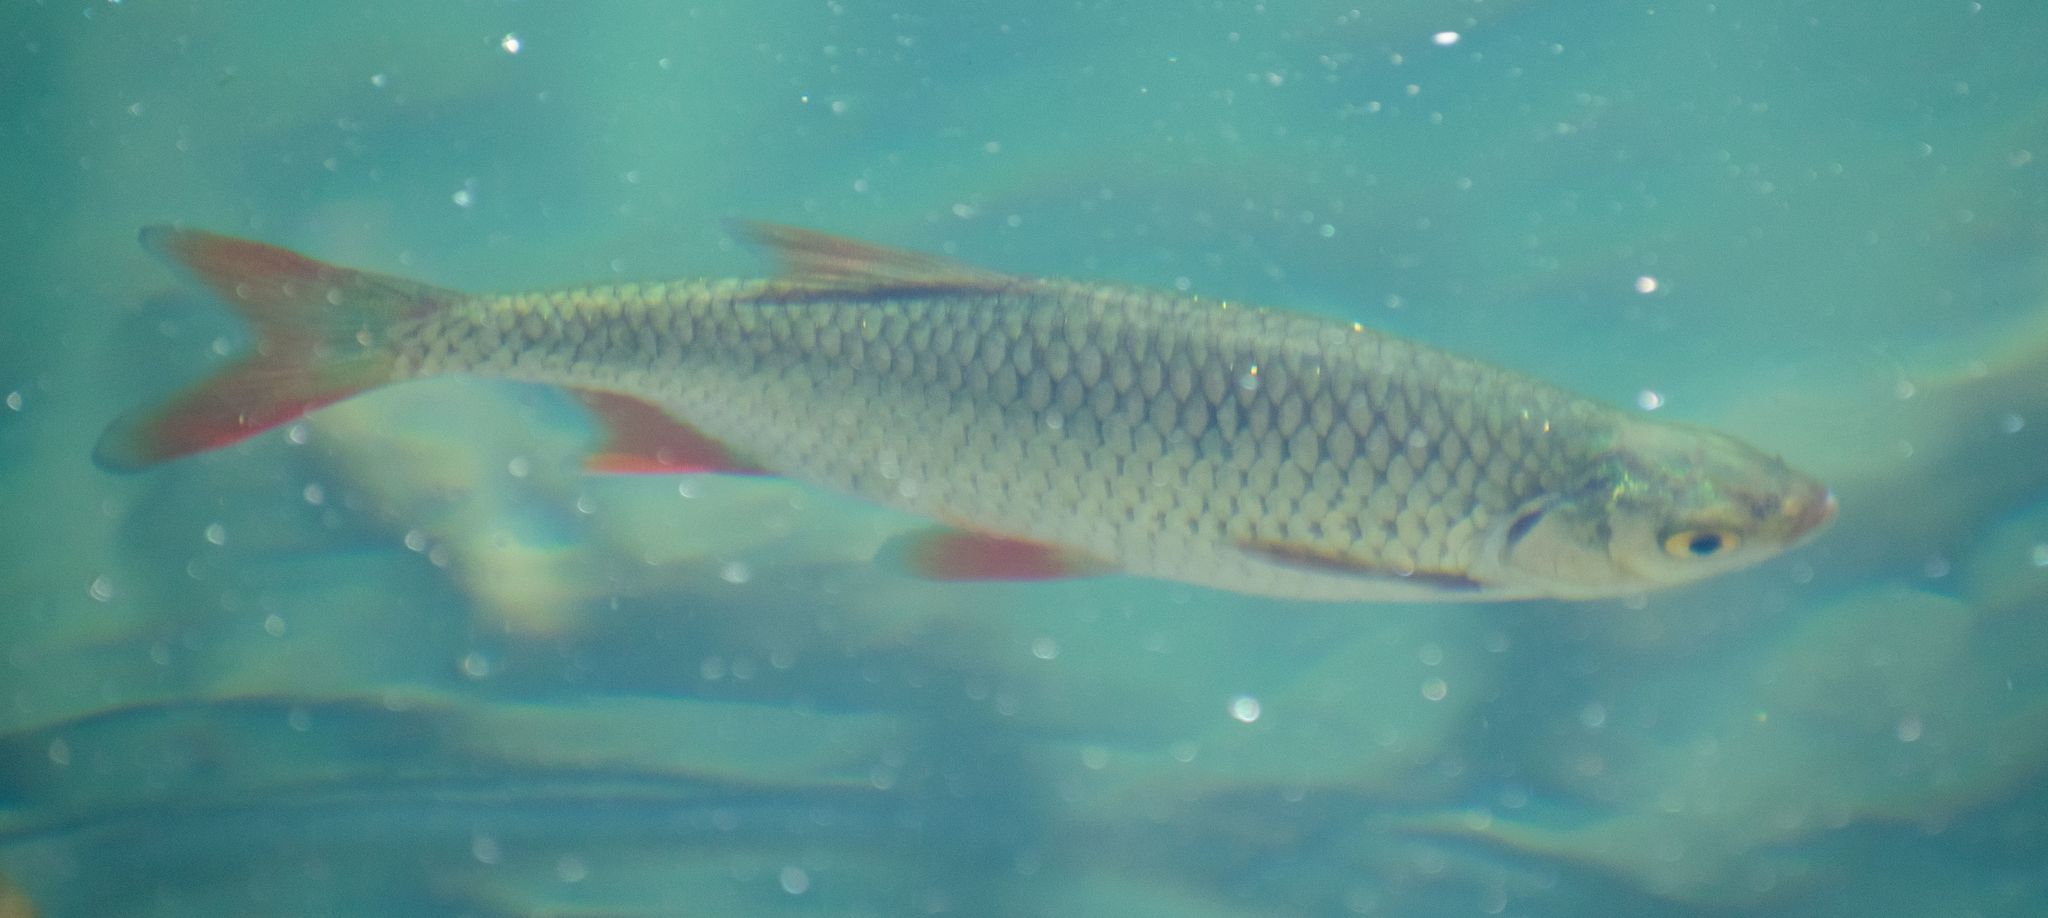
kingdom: Animalia
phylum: Chordata
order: Cypriniformes
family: Cyprinidae
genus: Scardinius
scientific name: Scardinius erythrophthalmus
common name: Rudd
